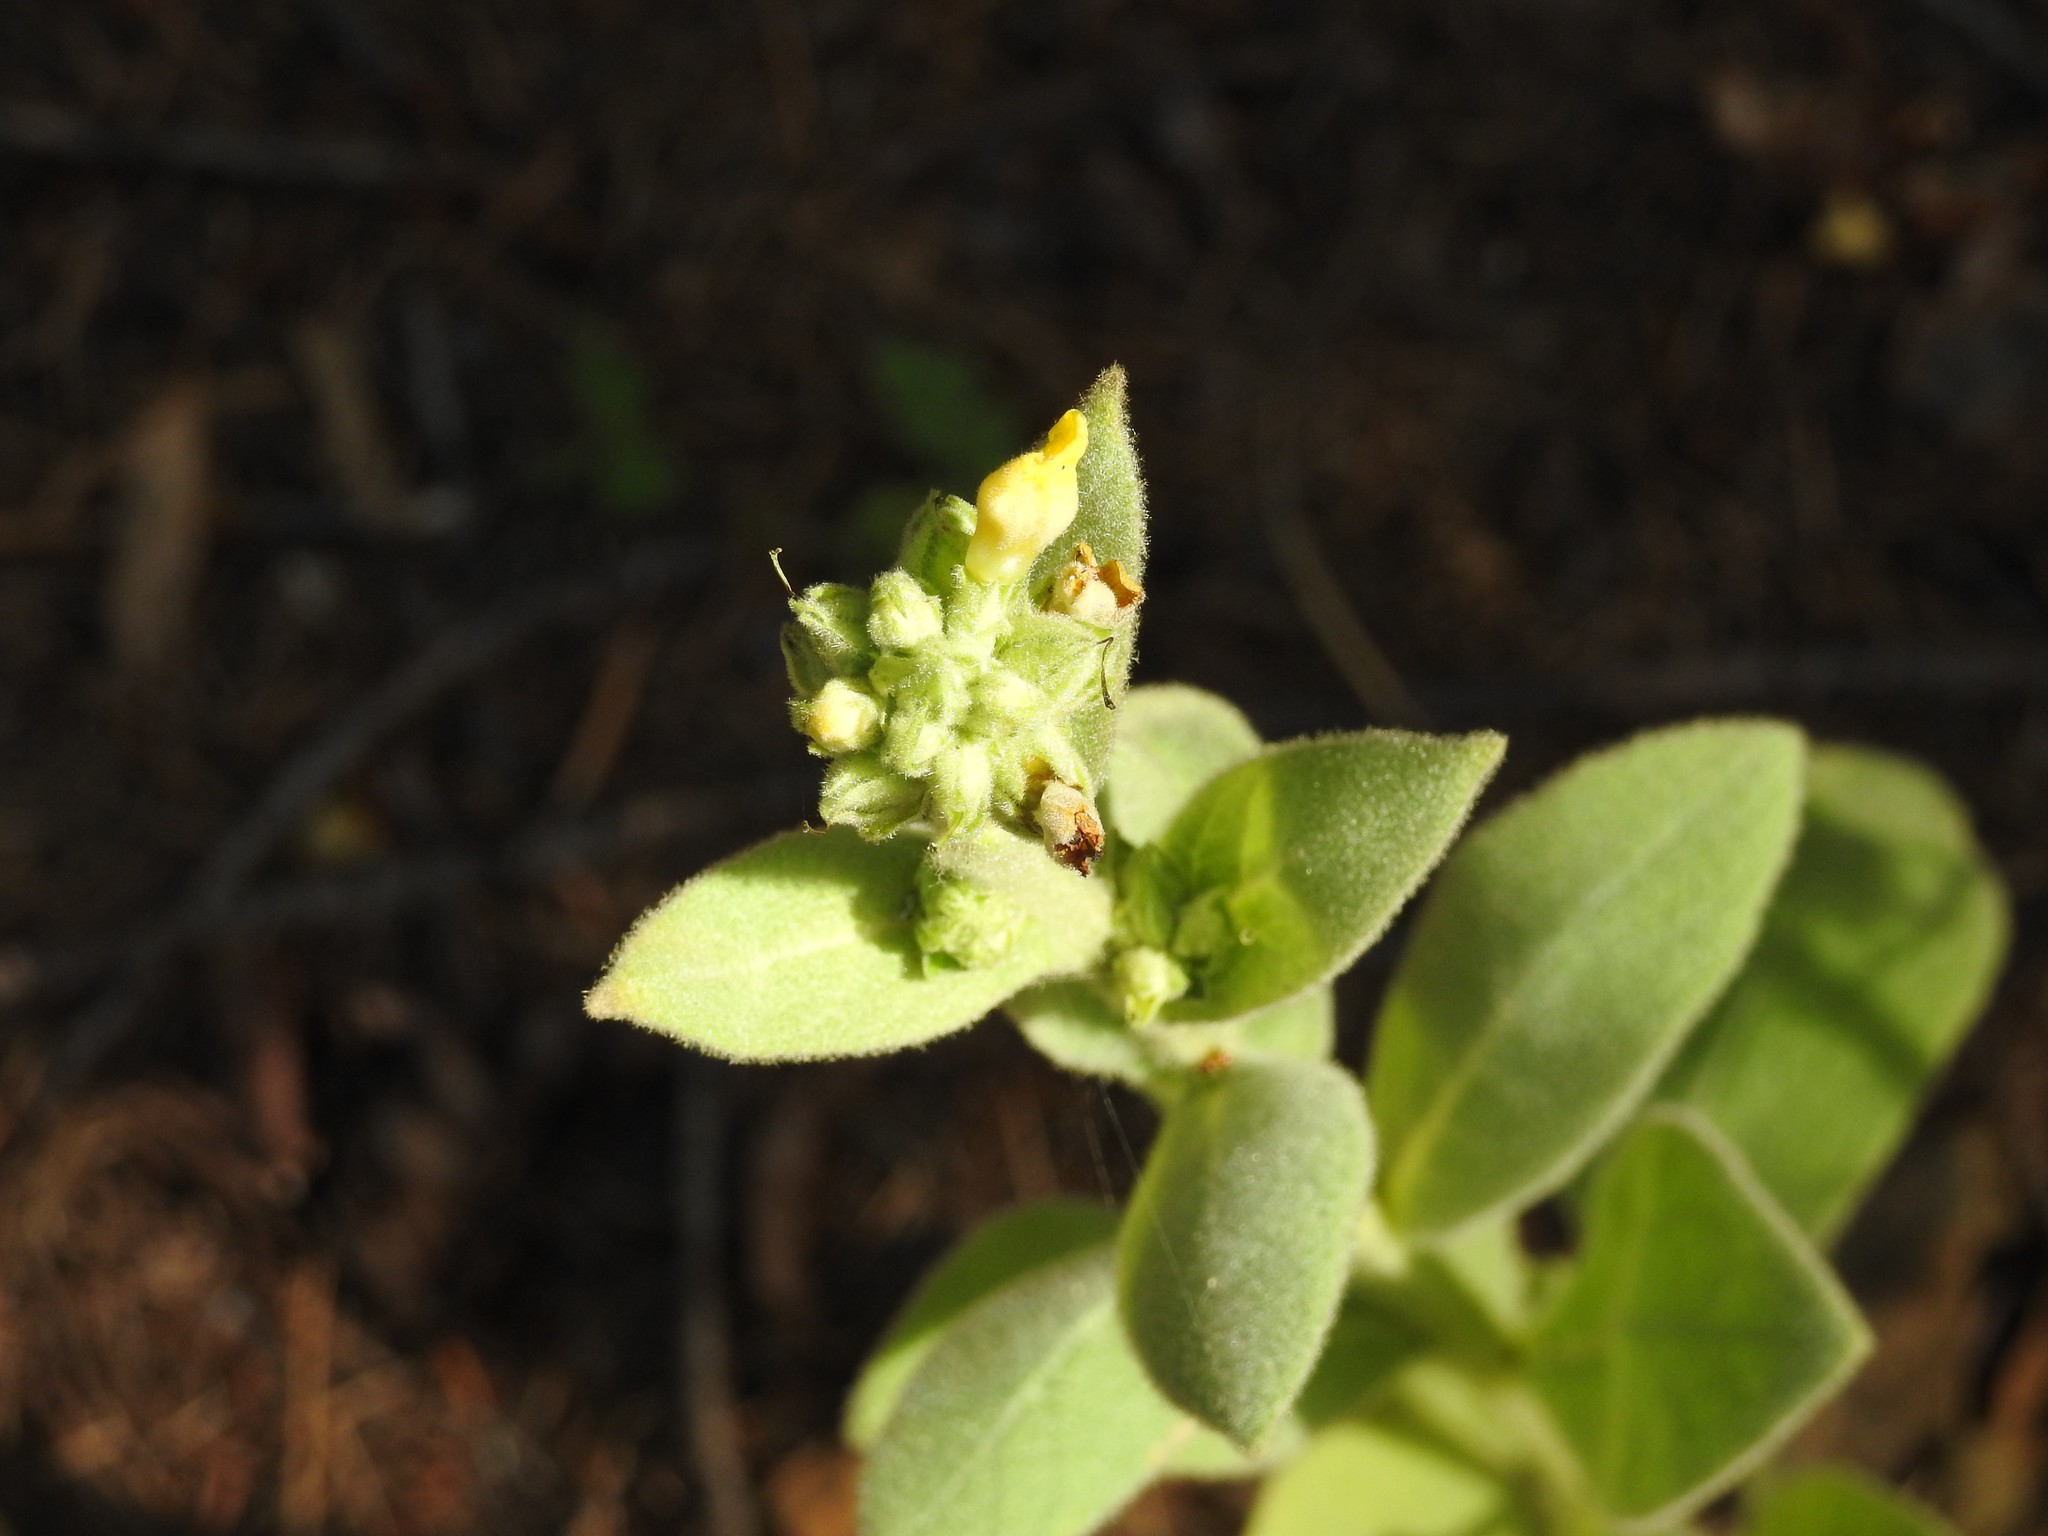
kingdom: Plantae
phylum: Tracheophyta
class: Magnoliopsida
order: Lamiales
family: Scrophulariaceae
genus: Verbascum
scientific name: Verbascum thapsus
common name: Common mullein
